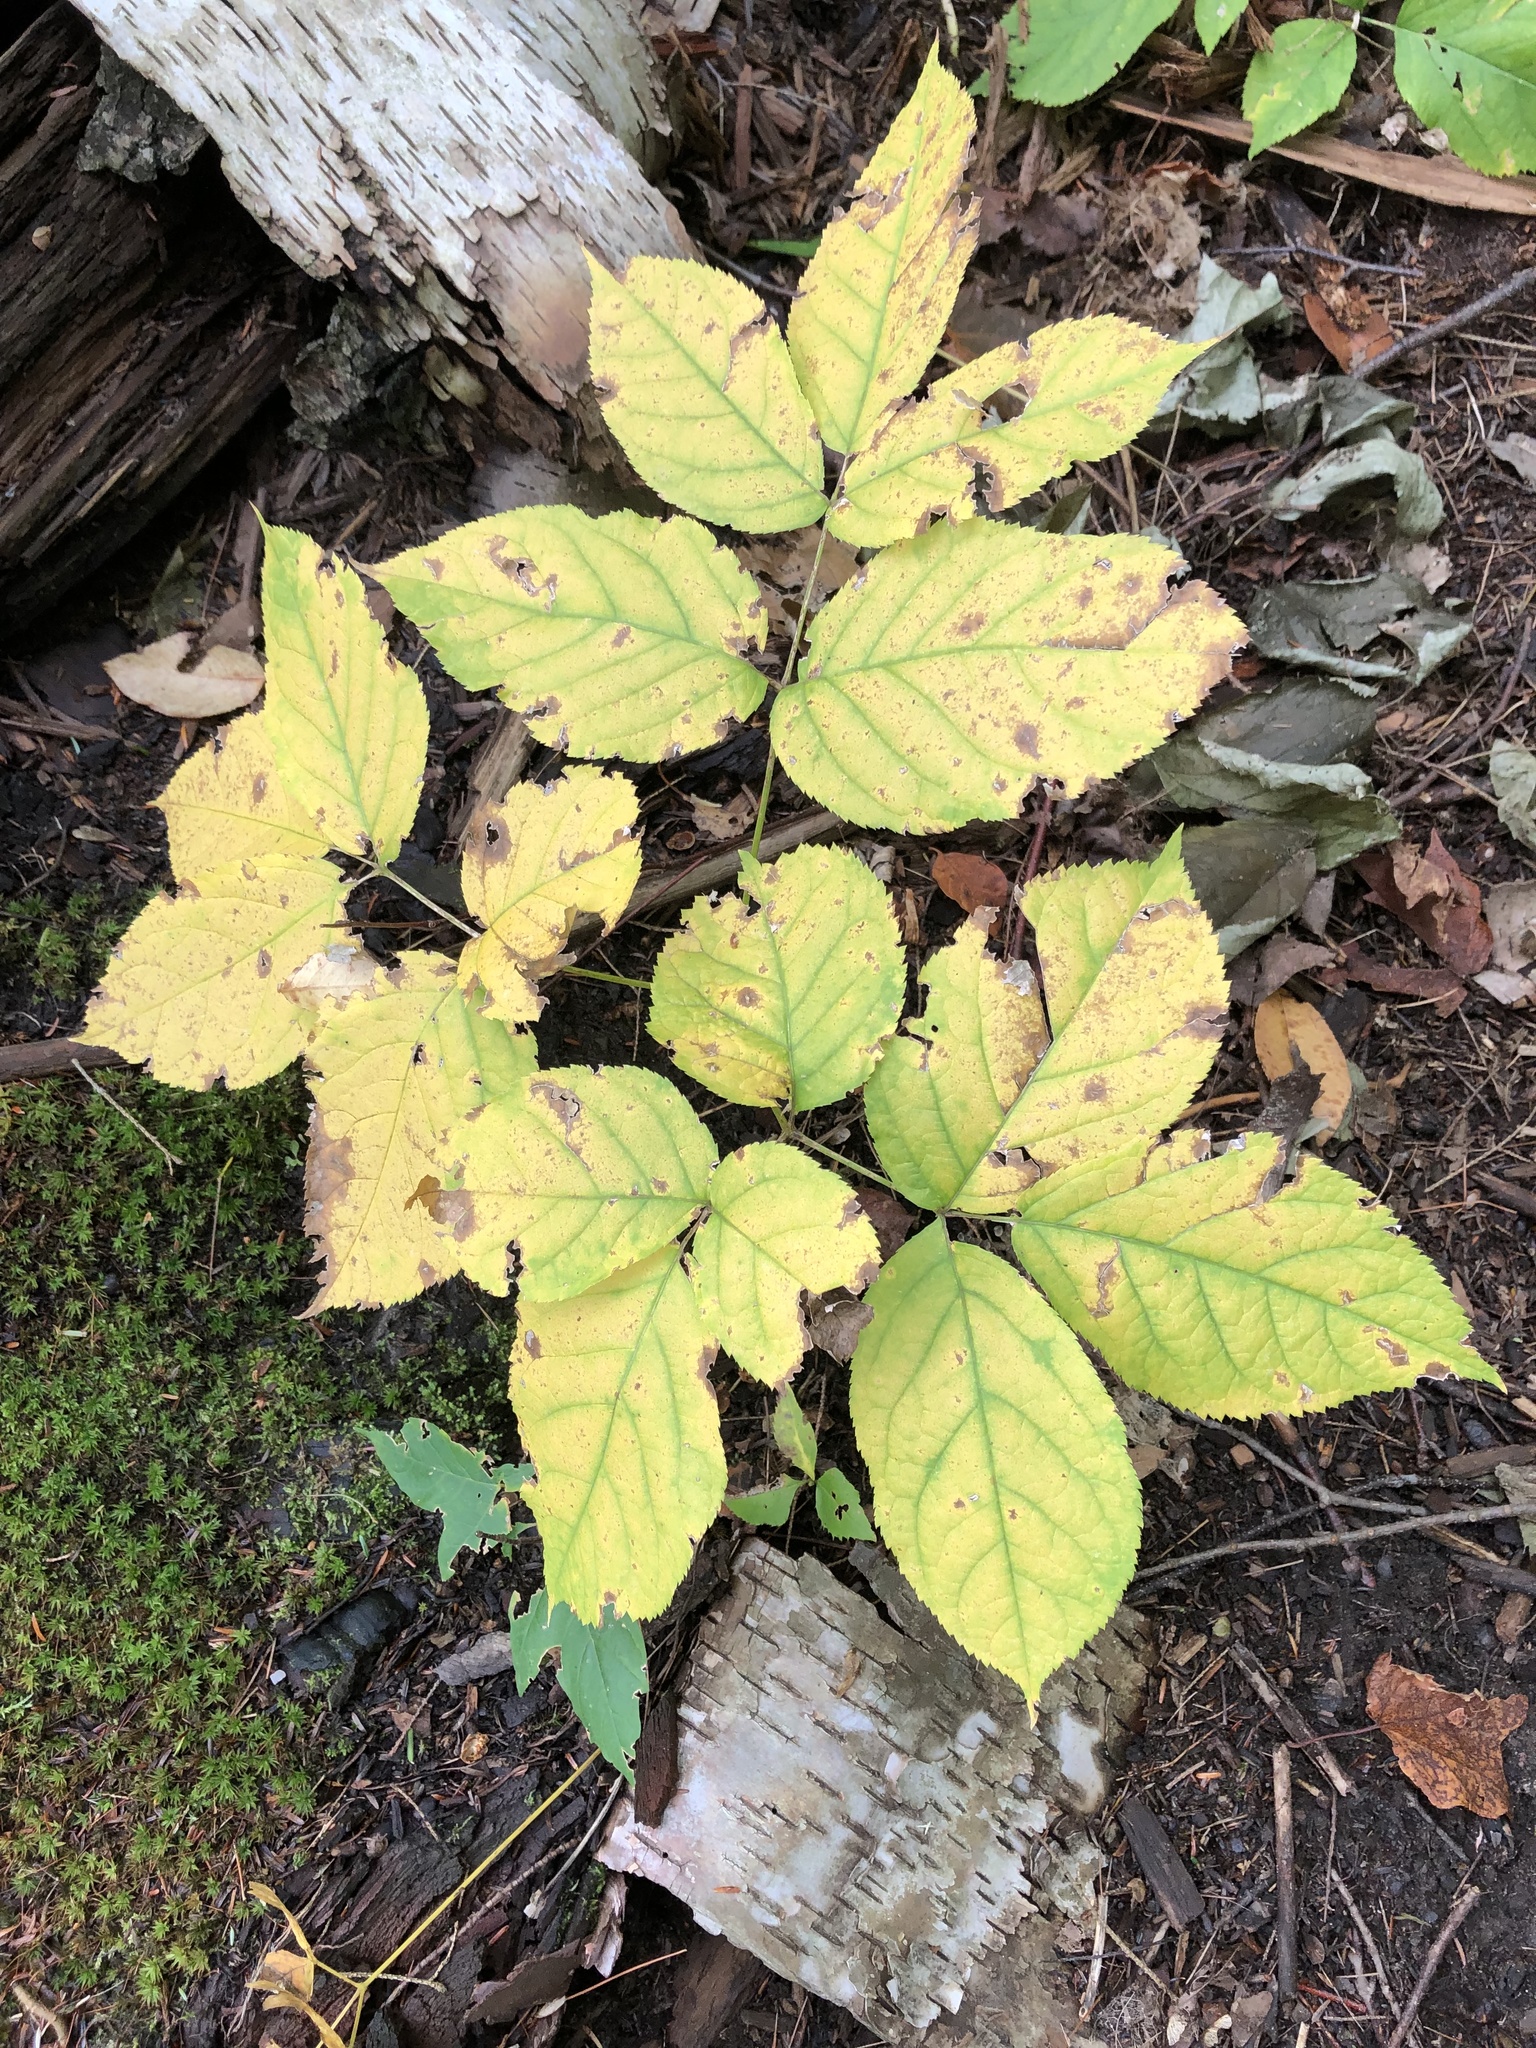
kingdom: Plantae
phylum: Tracheophyta
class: Magnoliopsida
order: Apiales
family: Araliaceae
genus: Aralia
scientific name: Aralia nudicaulis
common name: Wild sarsaparilla
